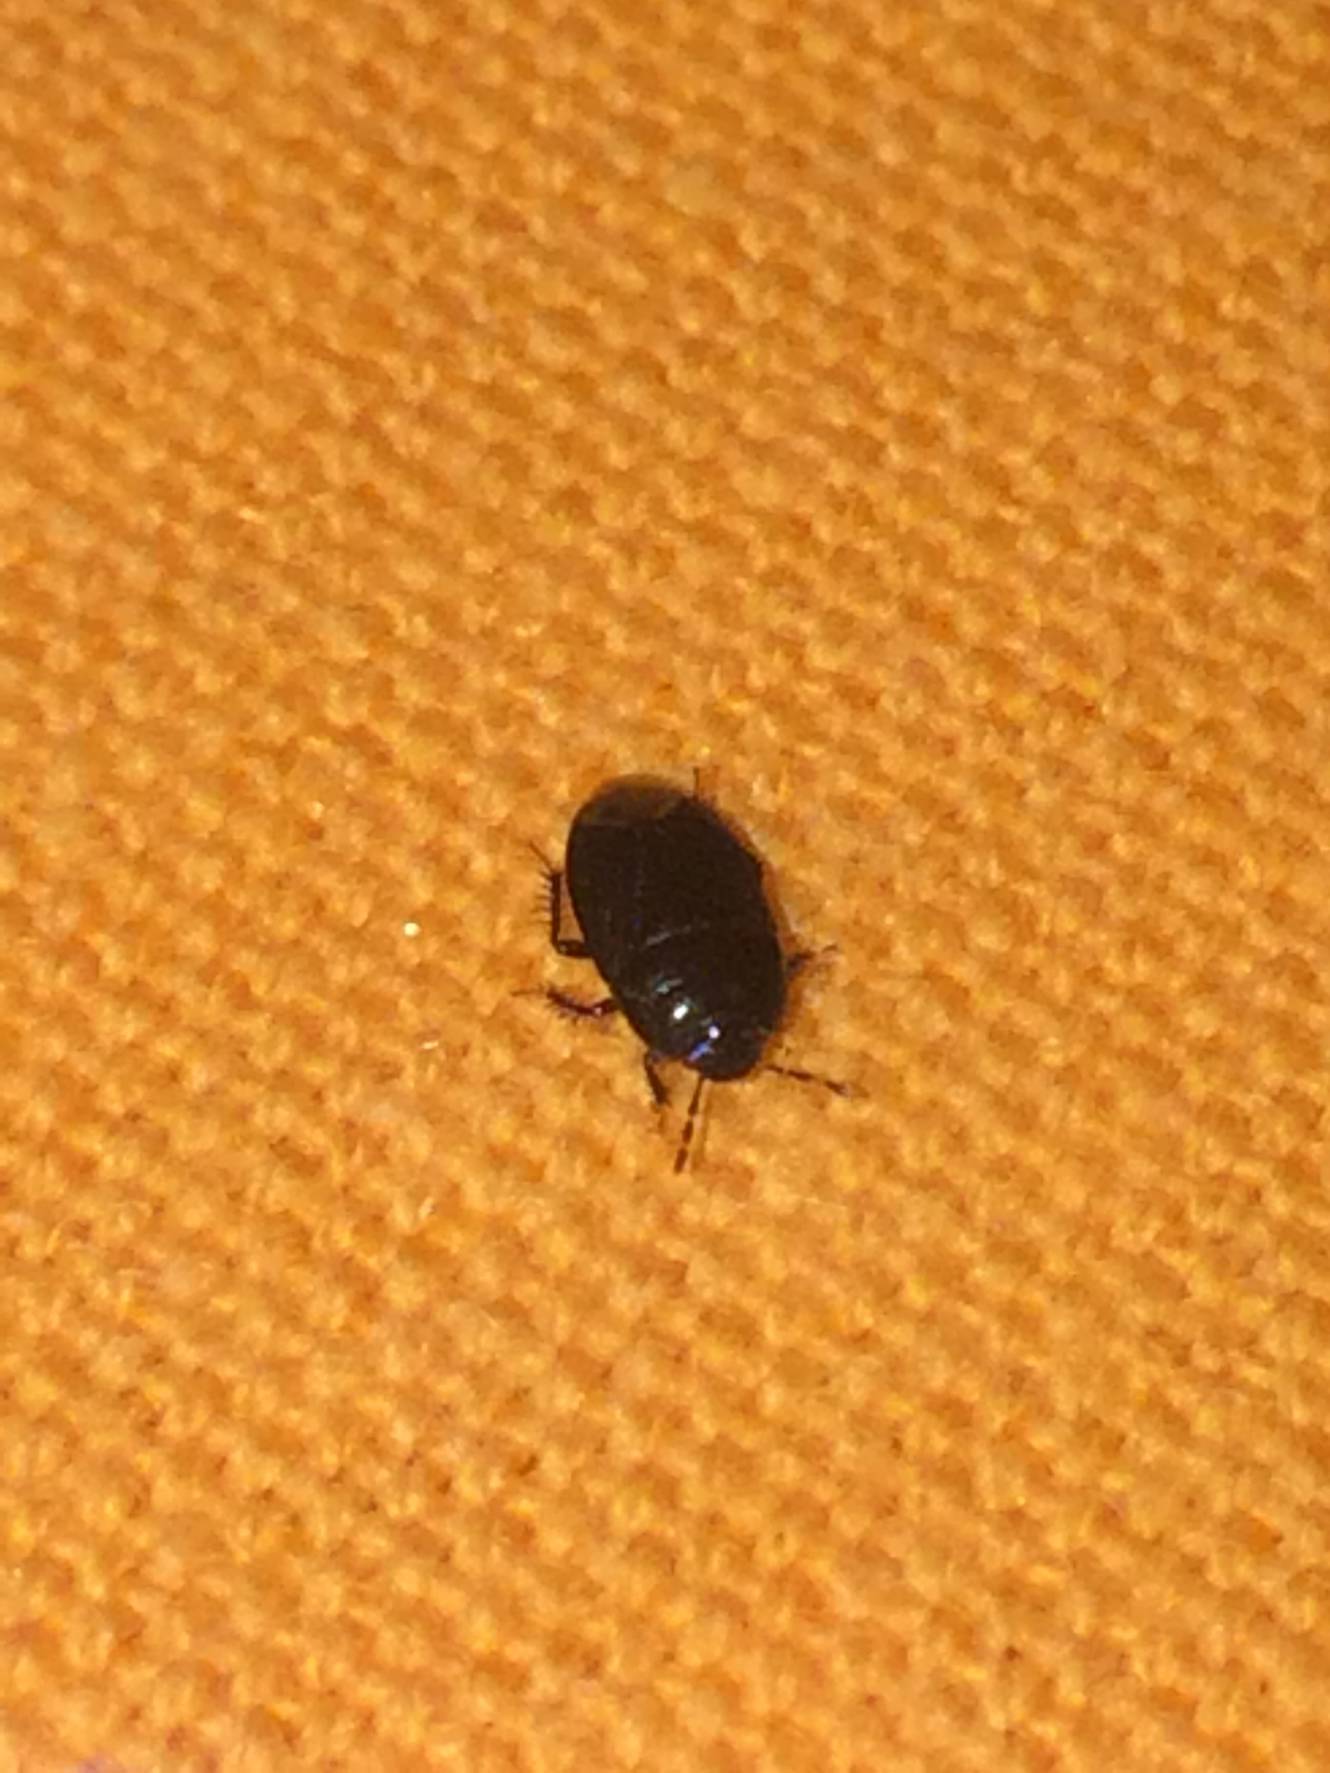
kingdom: Animalia
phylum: Arthropoda
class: Insecta
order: Hemiptera
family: Cydnidae
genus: Macroscytus
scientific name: Macroscytus brunneus
